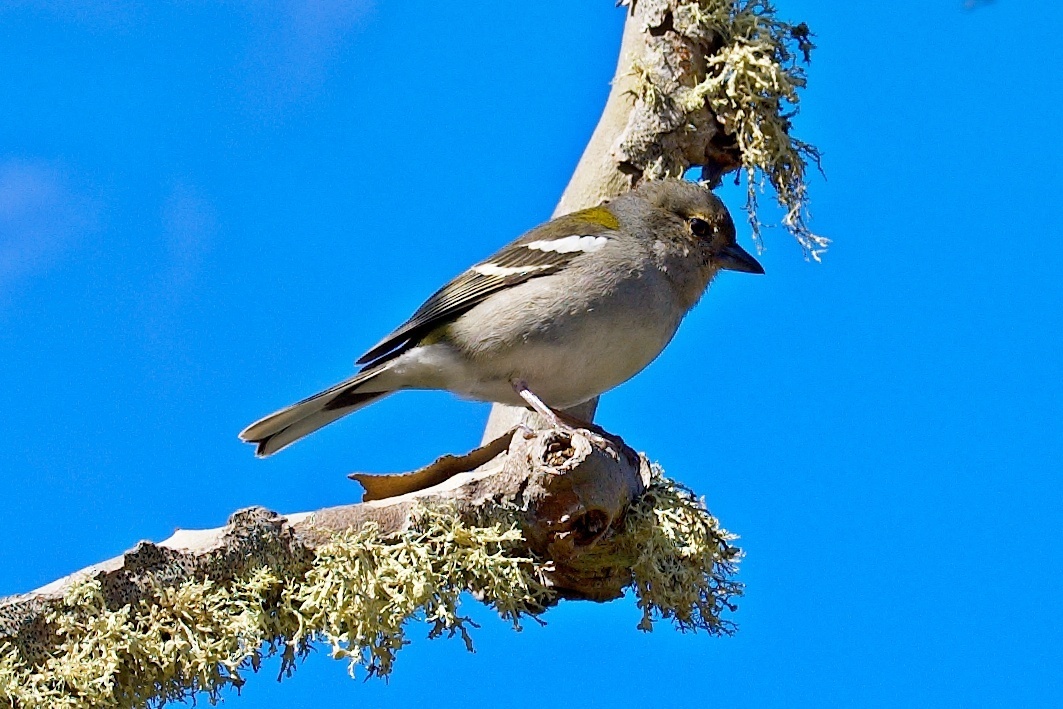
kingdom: Animalia
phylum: Chordata
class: Aves
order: Passeriformes
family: Fringillidae
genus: Fringilla
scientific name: Fringilla maderensis
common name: Madeira chaffinch
